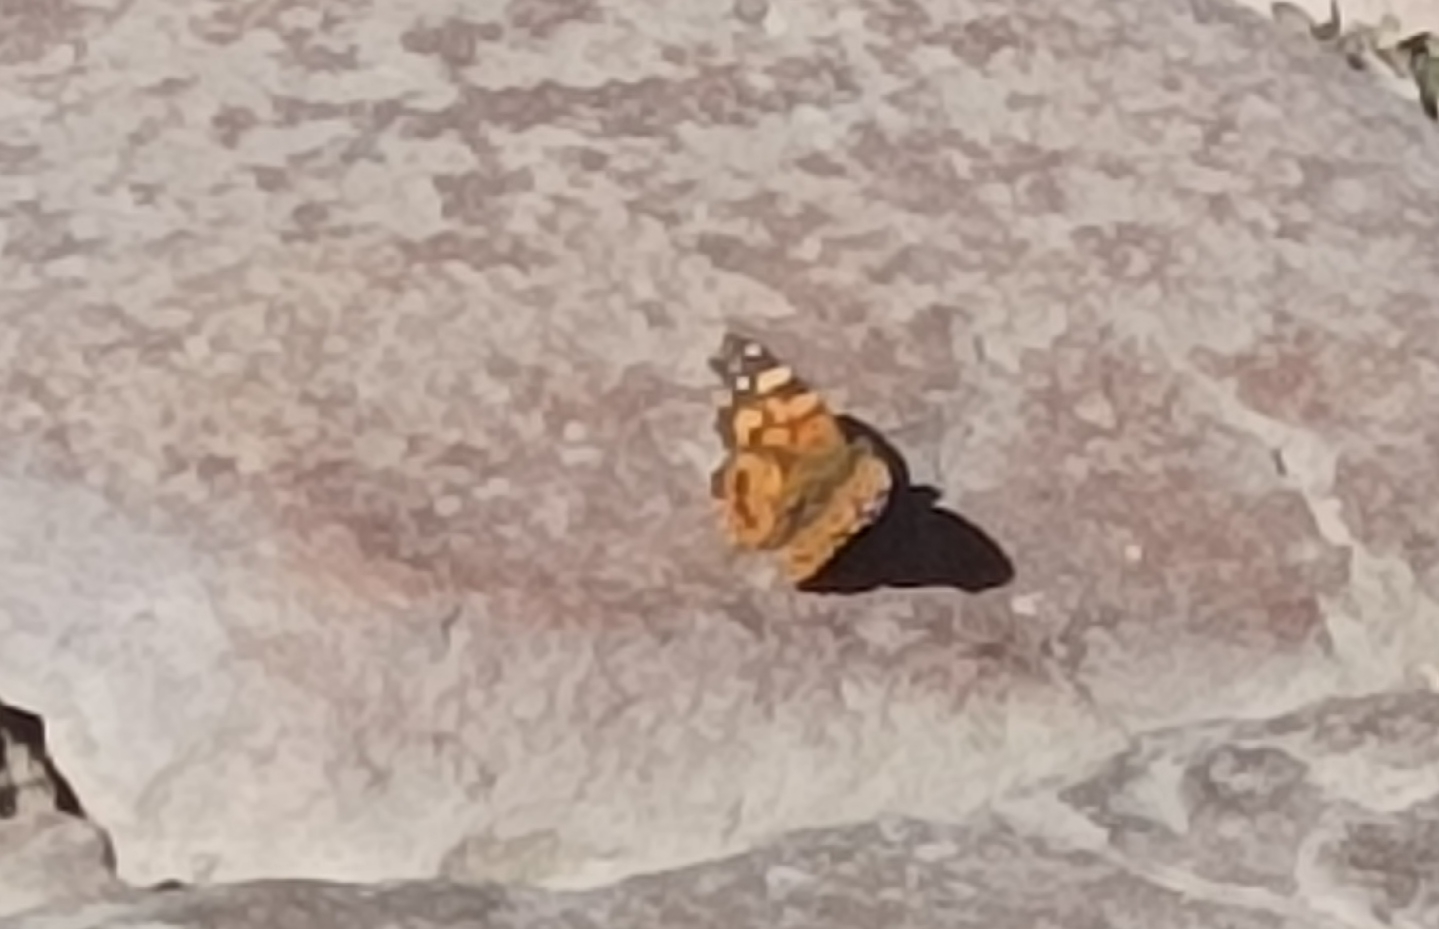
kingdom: Animalia
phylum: Arthropoda
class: Insecta
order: Lepidoptera
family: Nymphalidae
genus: Vanessa
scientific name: Vanessa carye
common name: Subtropical lady
